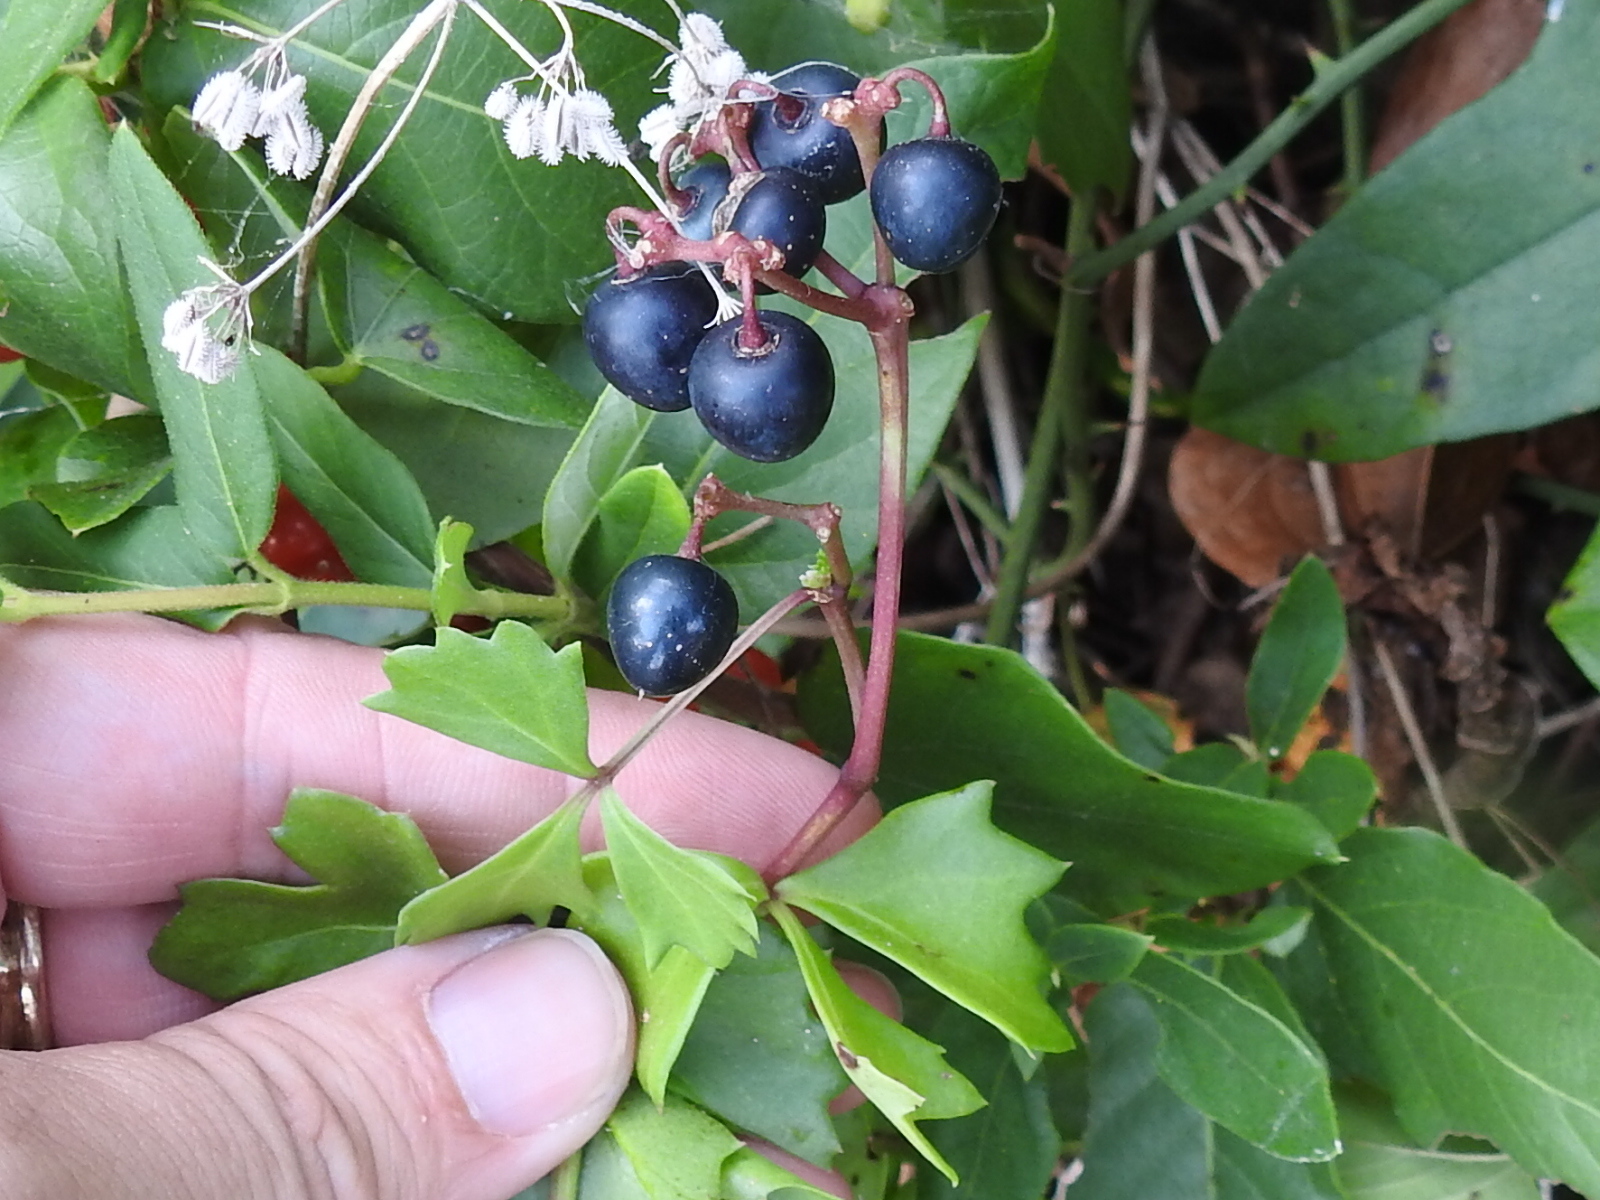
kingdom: Plantae
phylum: Tracheophyta
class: Magnoliopsida
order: Vitales
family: Vitaceae
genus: Cissus
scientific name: Cissus trifoliata
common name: Vine-sorrel
